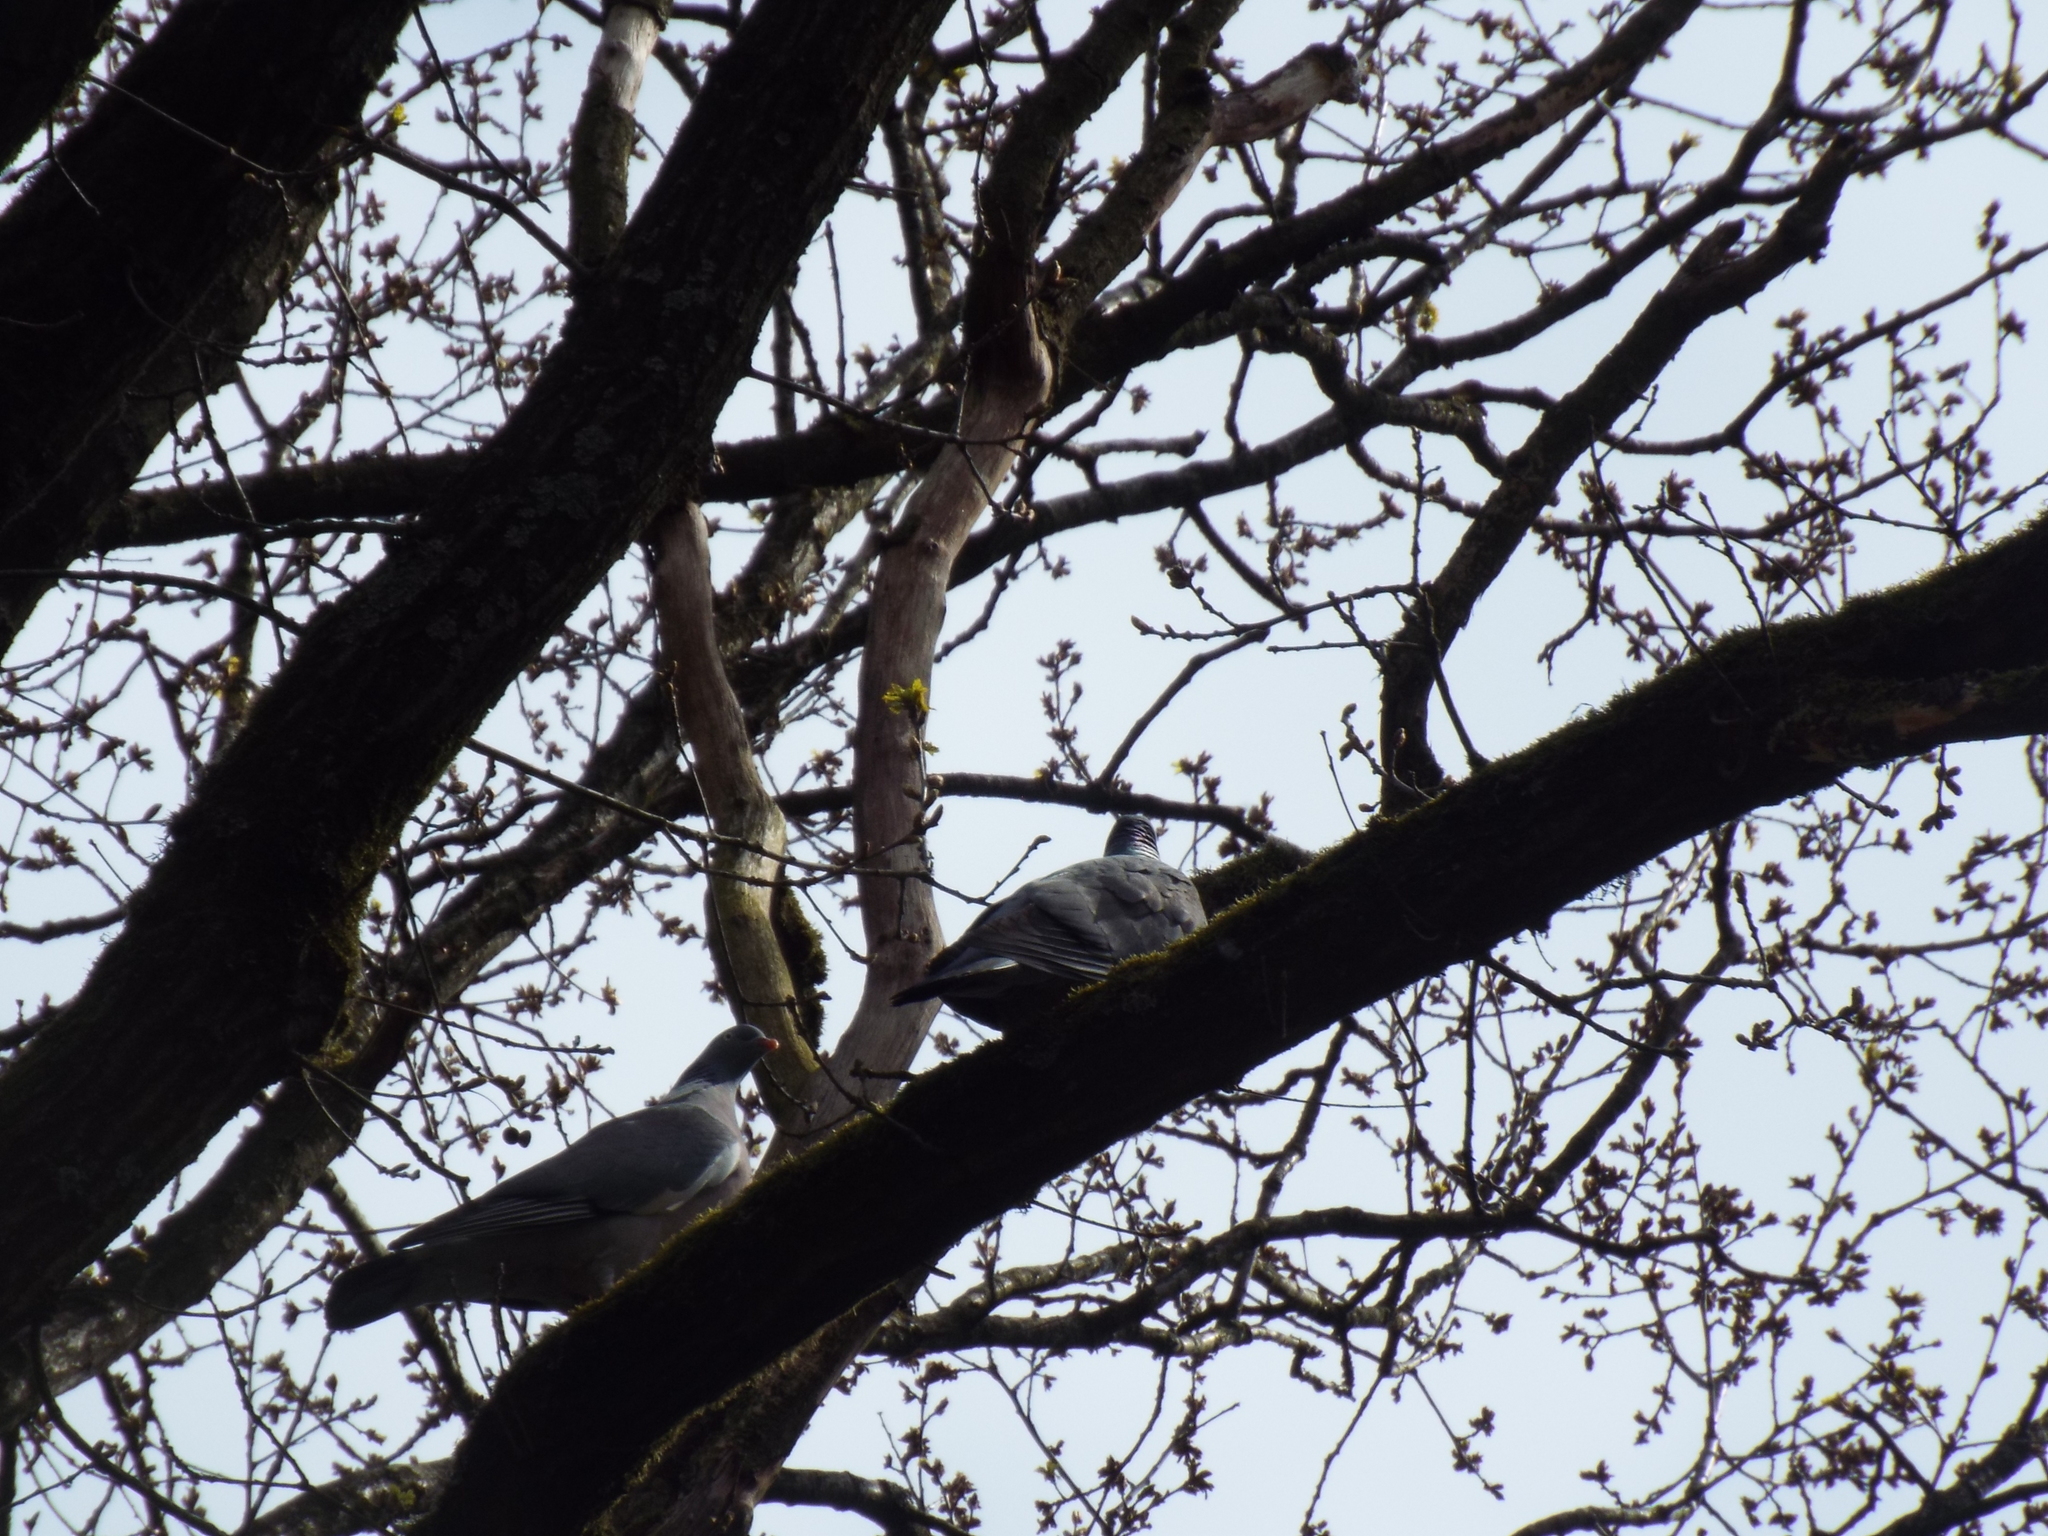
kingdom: Animalia
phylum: Chordata
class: Aves
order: Columbiformes
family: Columbidae
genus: Columba
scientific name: Columba palumbus
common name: Common wood pigeon
